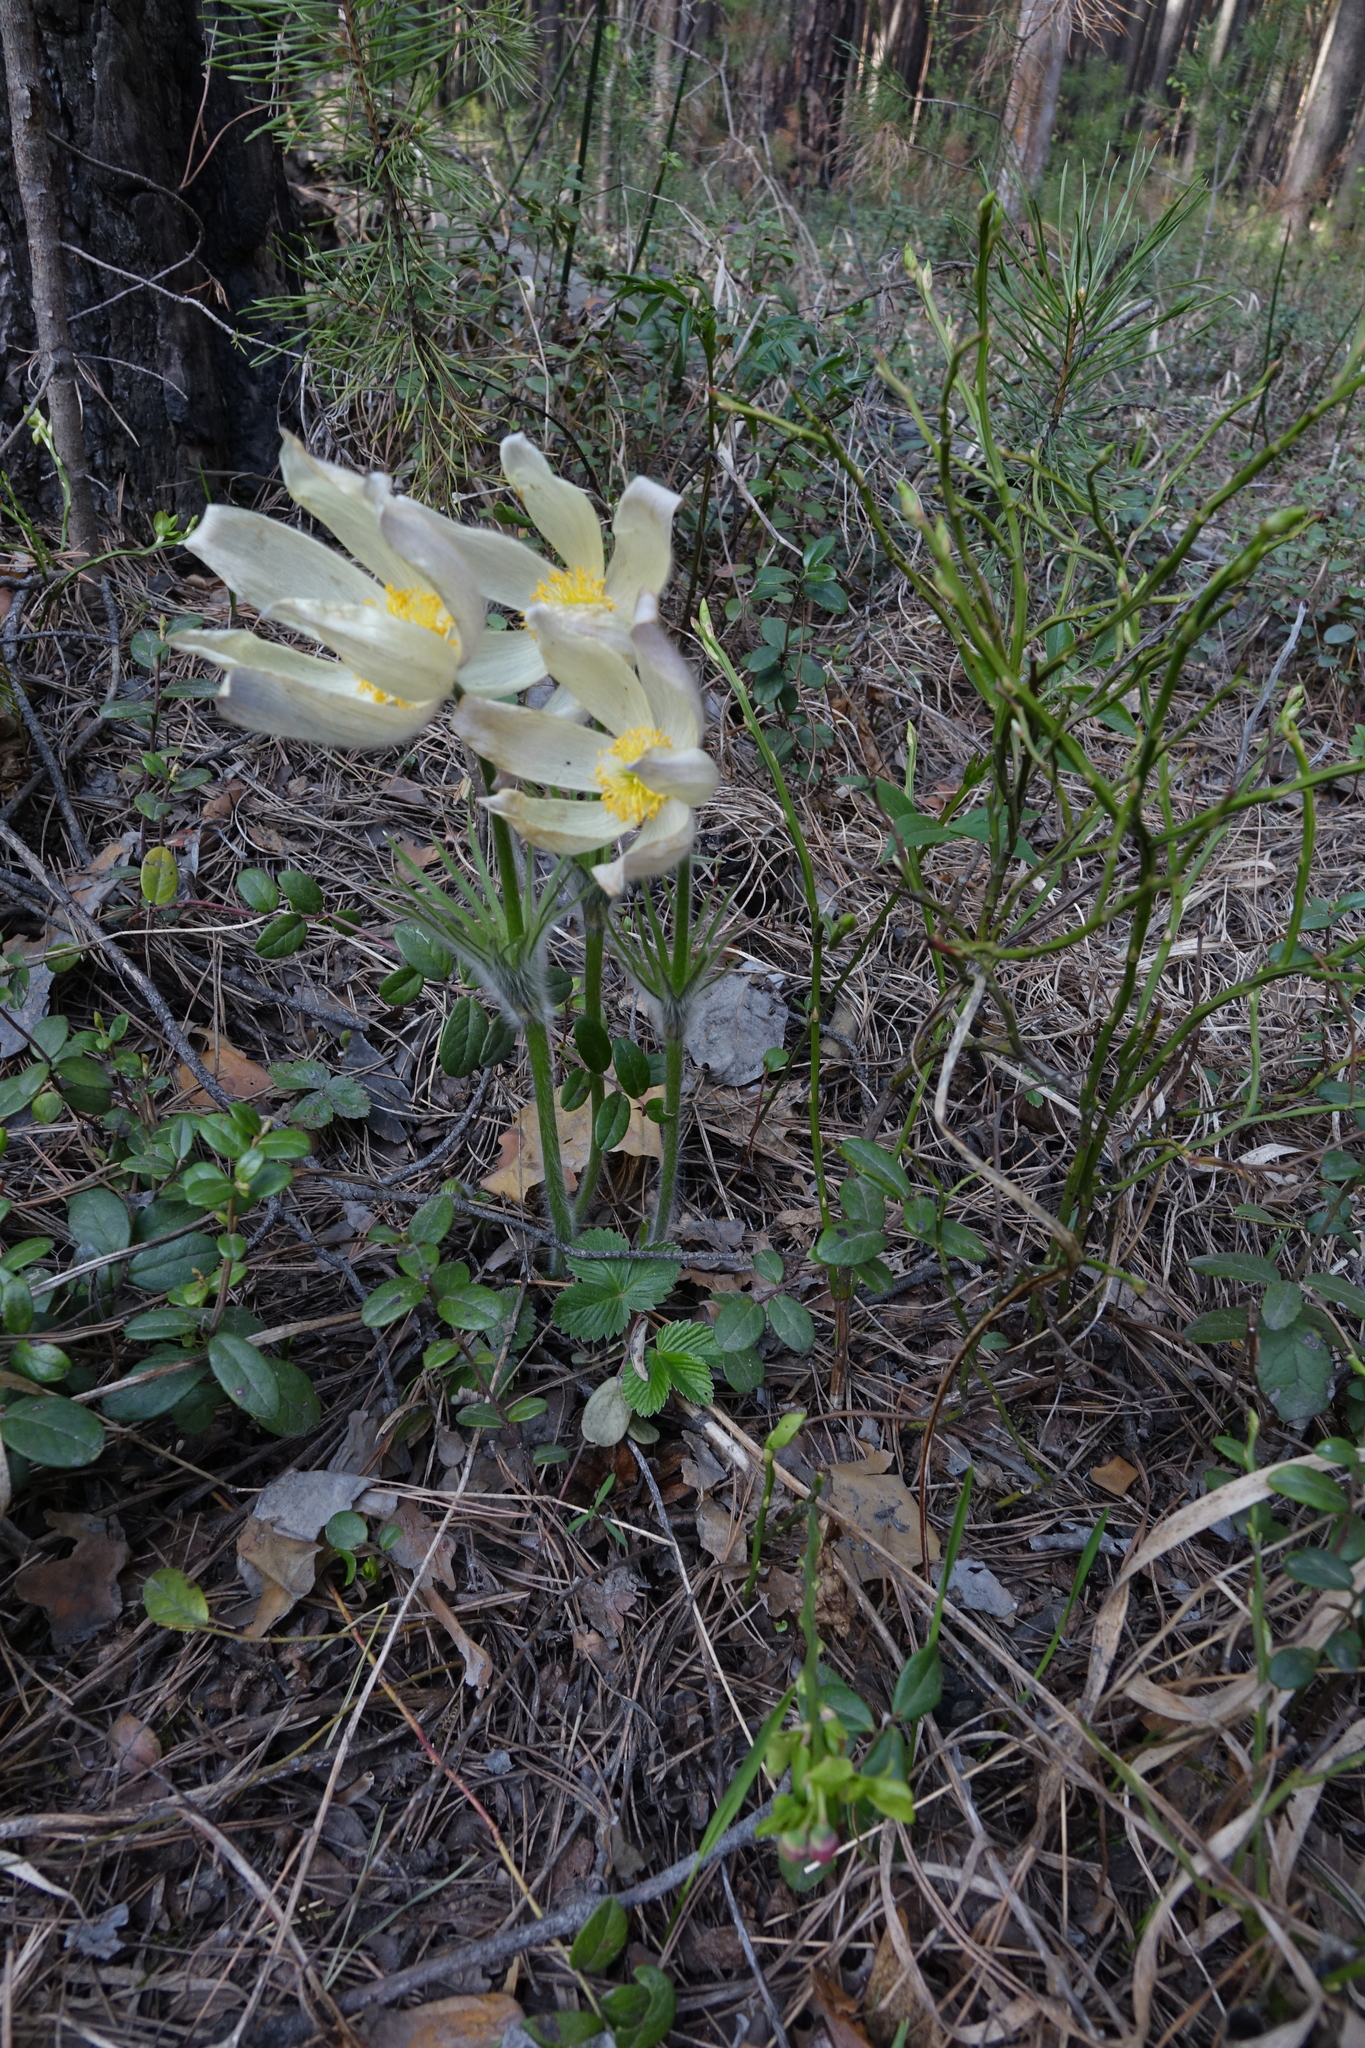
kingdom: Plantae
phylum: Tracheophyta
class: Magnoliopsida
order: Ranunculales
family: Ranunculaceae
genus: Pulsatilla
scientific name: Pulsatilla patens
